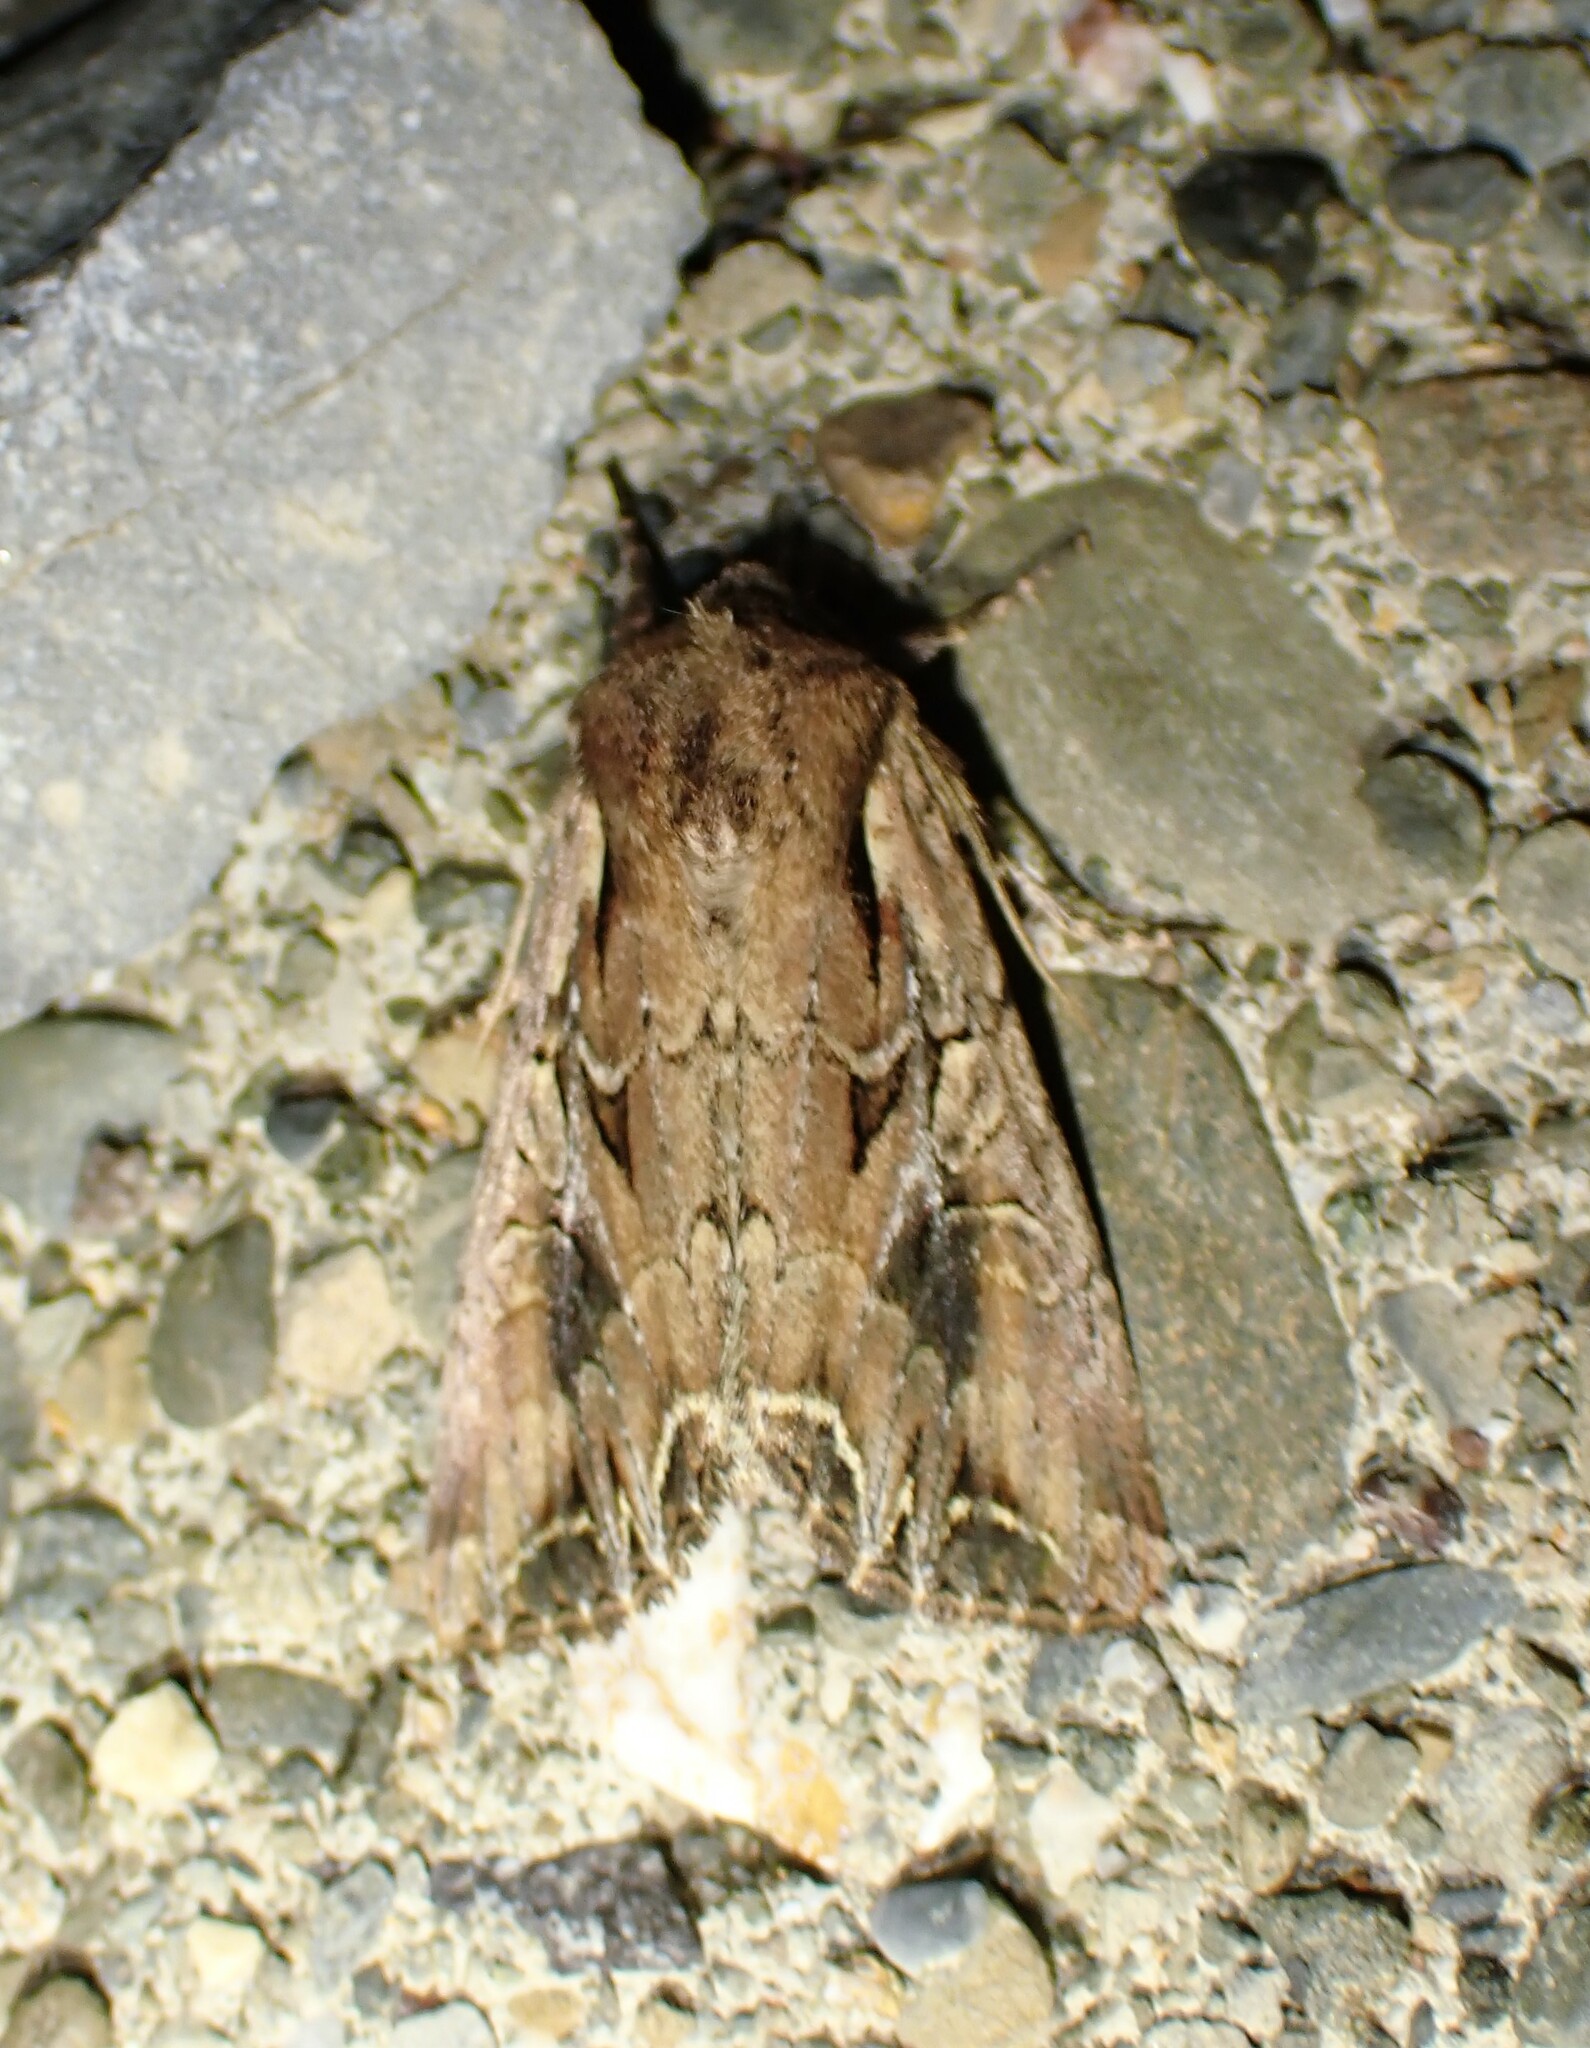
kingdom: Animalia
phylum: Arthropoda
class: Insecta
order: Lepidoptera
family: Noctuidae
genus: Lacanobia
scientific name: Lacanobia atlantica
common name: Atlantic arches moth
